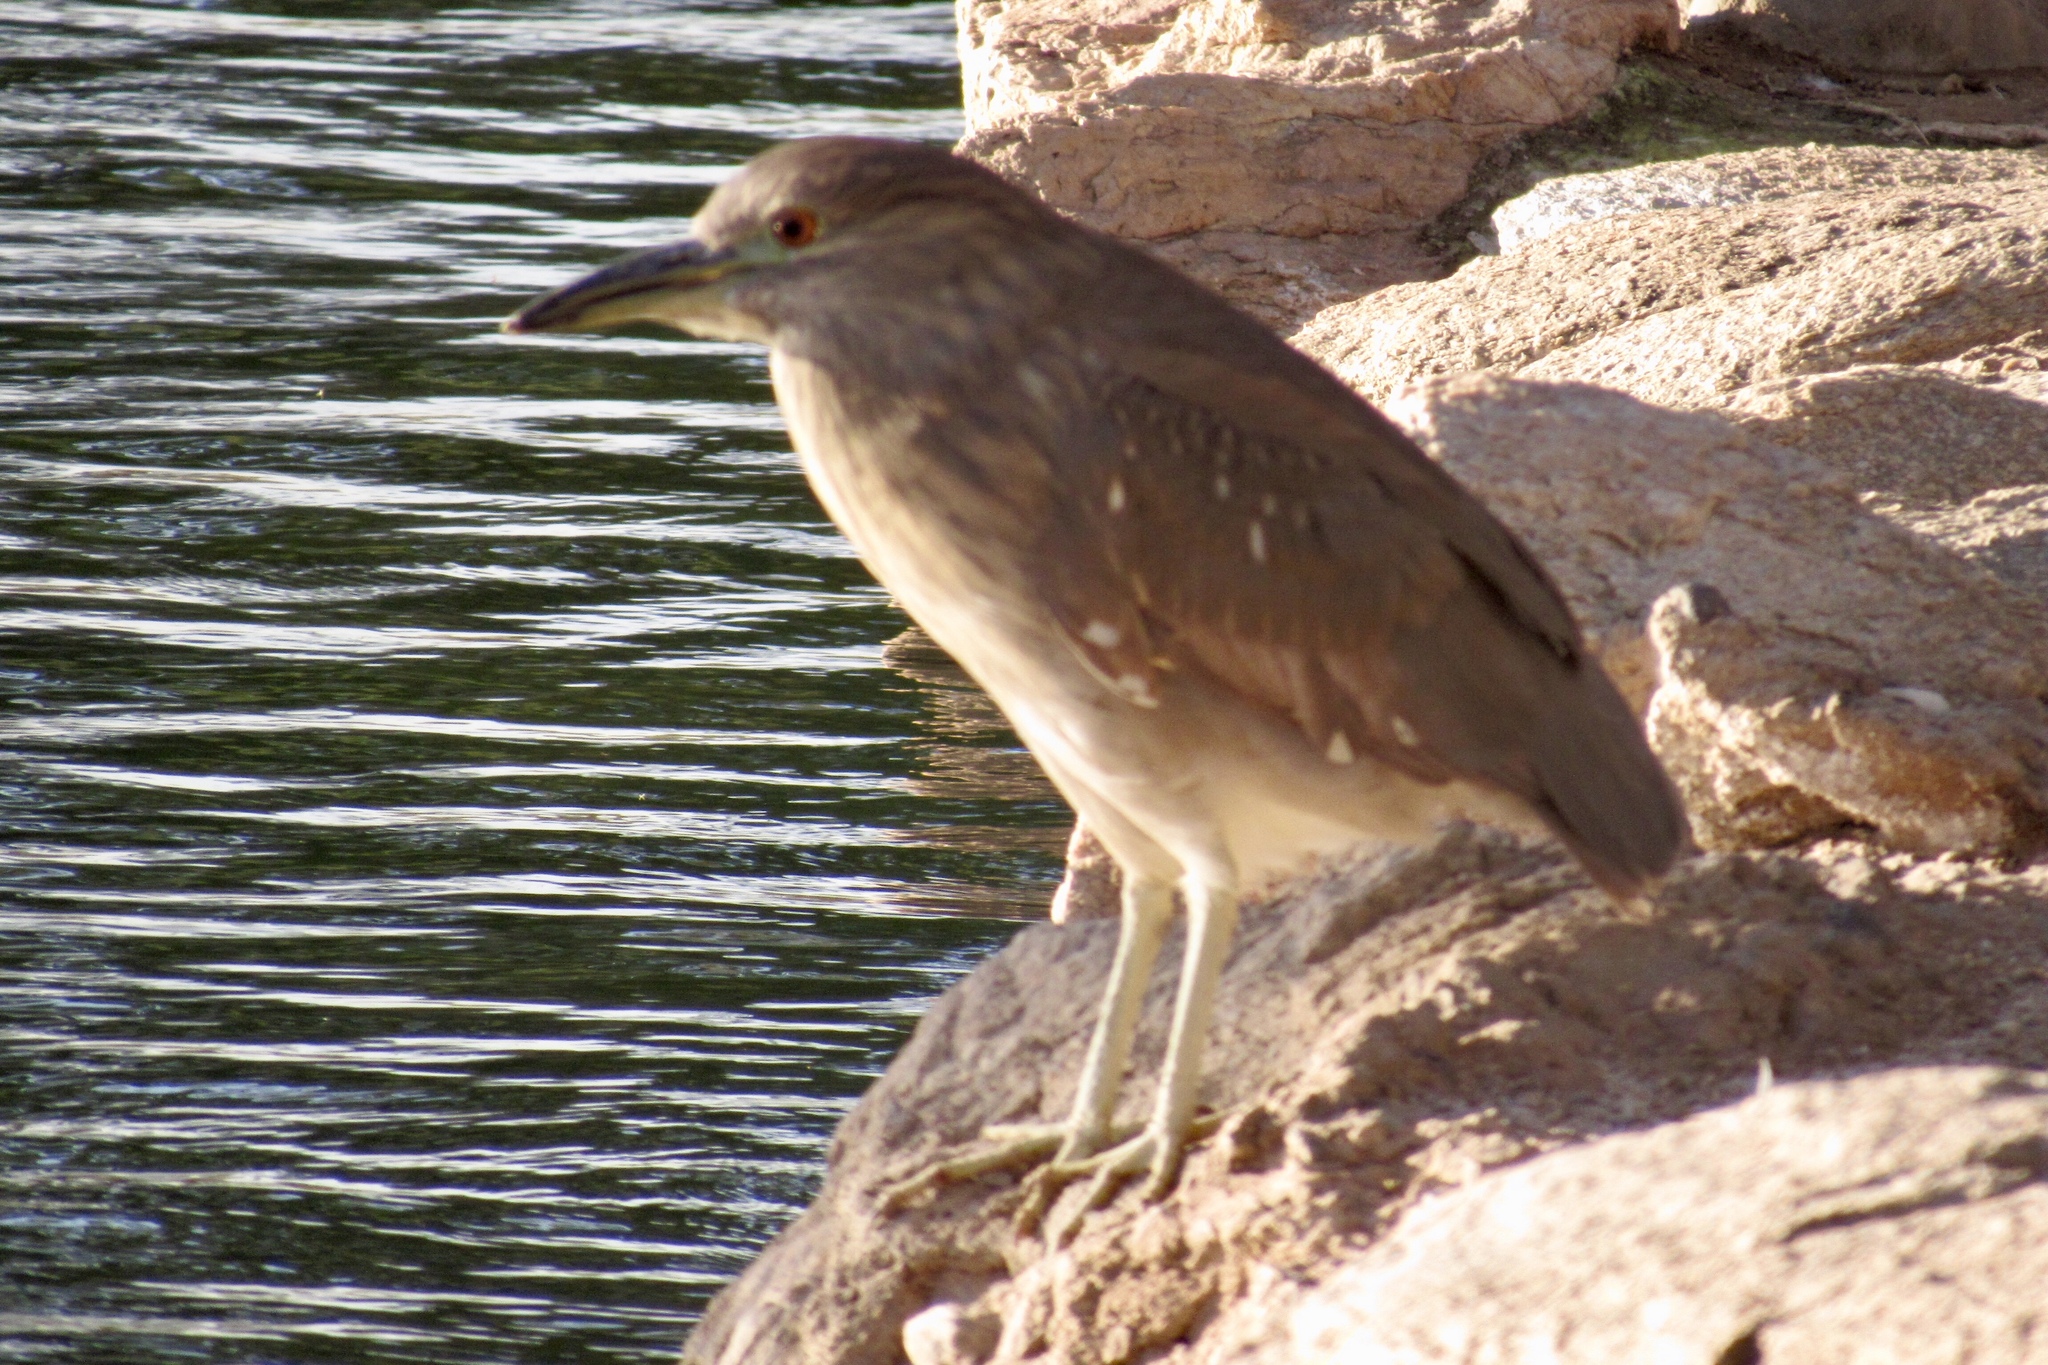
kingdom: Animalia
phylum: Chordata
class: Aves
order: Pelecaniformes
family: Ardeidae
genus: Nycticorax
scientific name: Nycticorax nycticorax
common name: Black-crowned night heron
